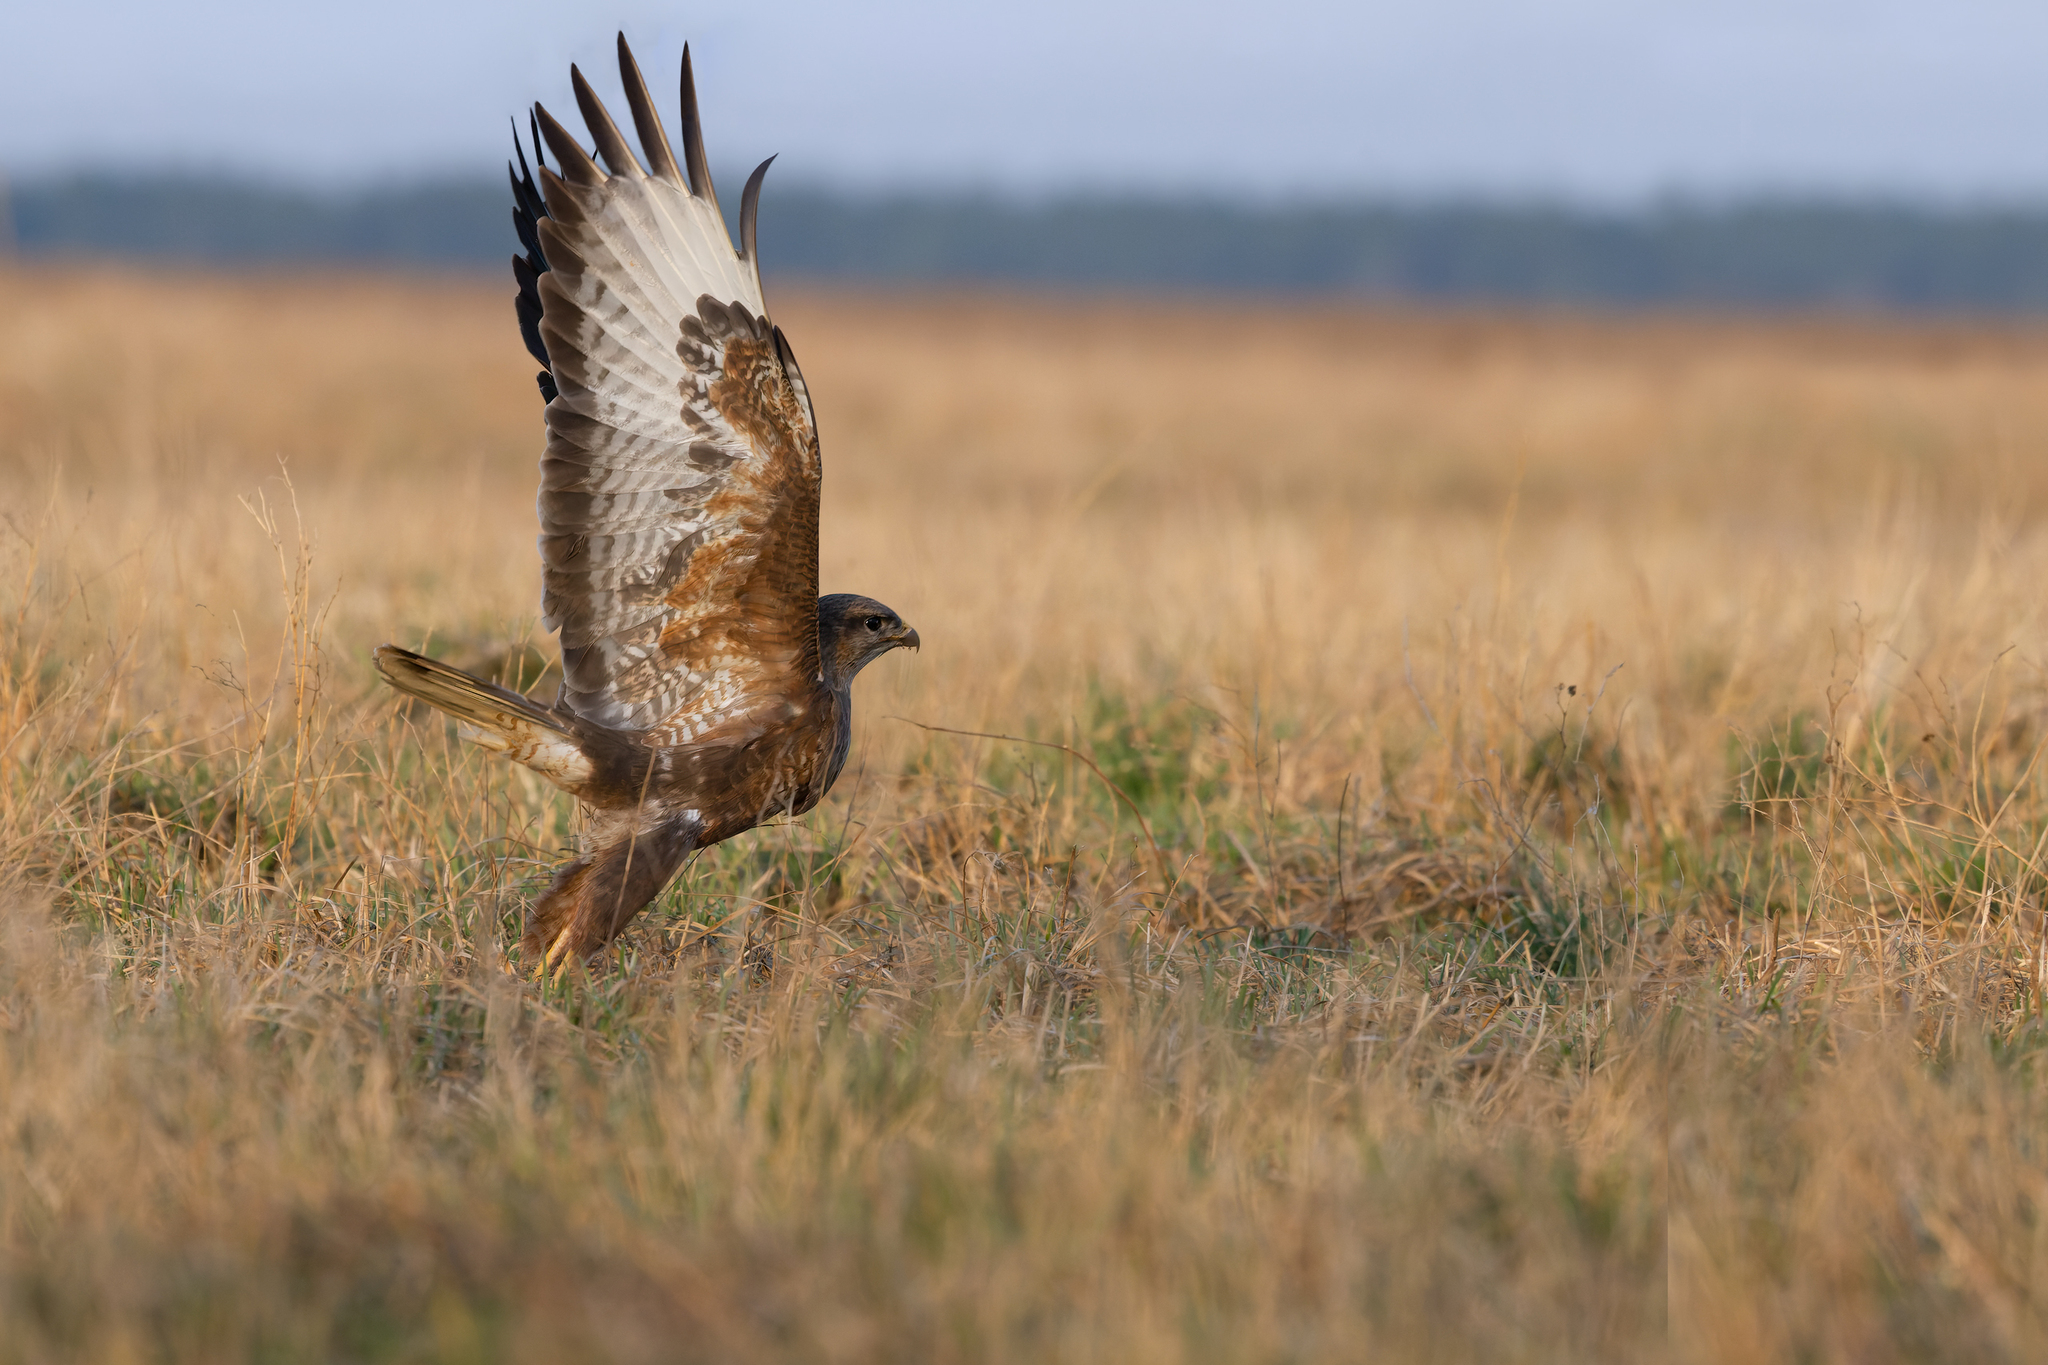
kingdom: Animalia
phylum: Chordata
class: Aves
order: Accipitriformes
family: Accipitridae
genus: Buteo
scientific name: Buteo buteo
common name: Common buzzard
